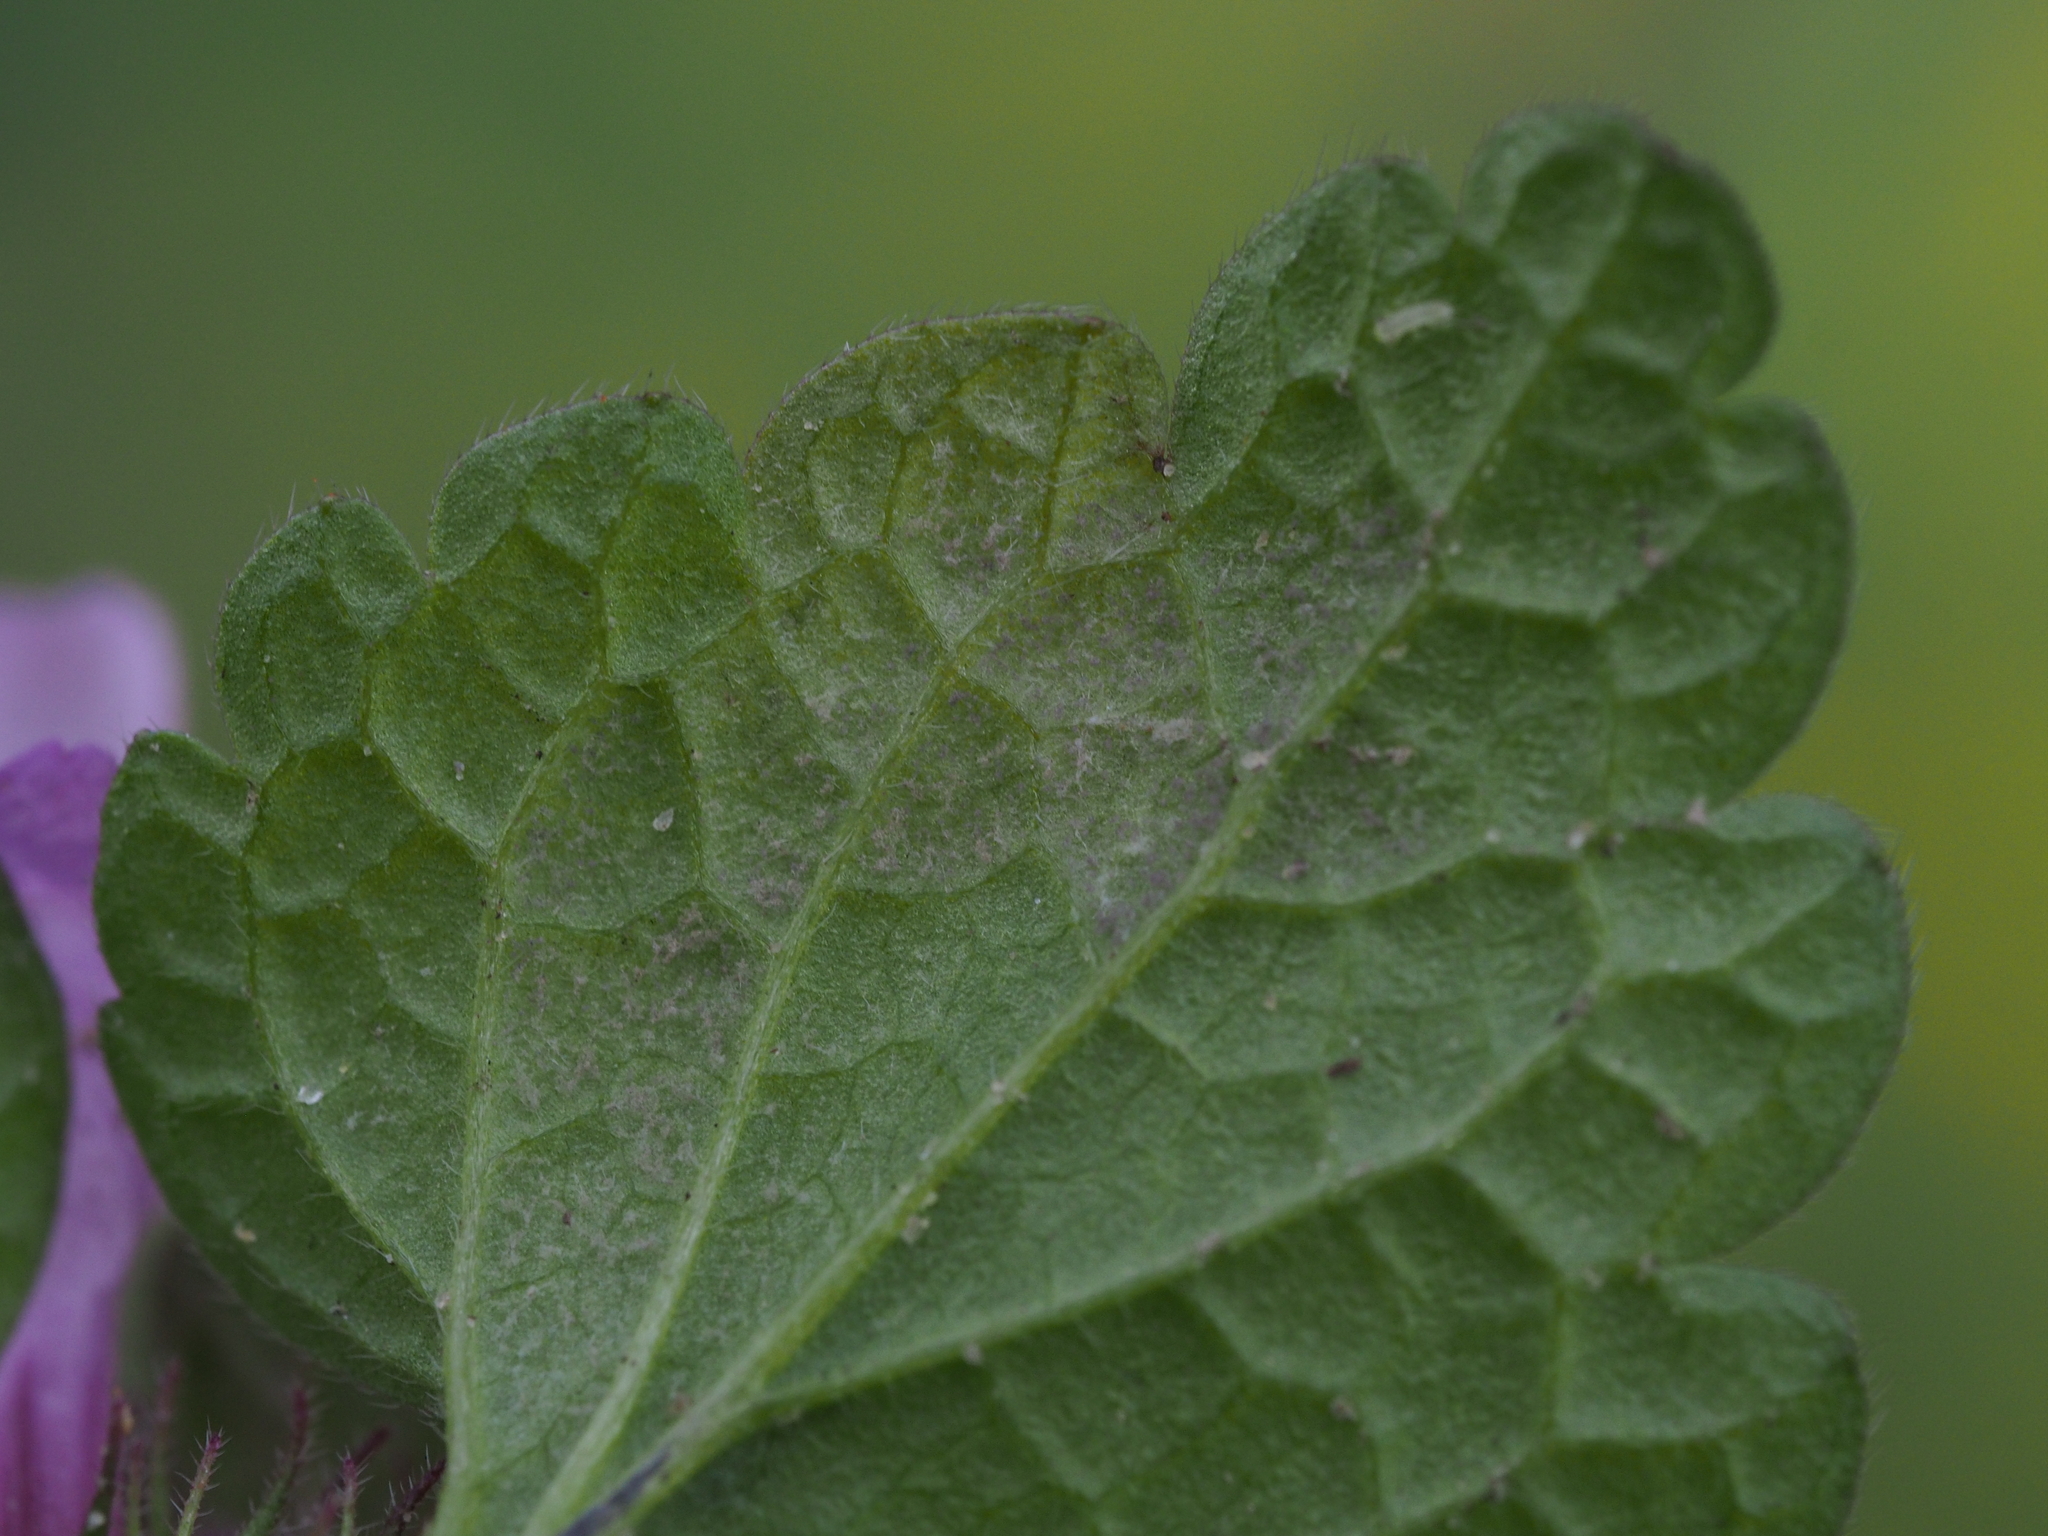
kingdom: Chromista
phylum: Oomycota
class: Peronosporea
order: Peronosporales
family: Peronosporaceae
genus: Peronospora
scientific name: Peronospora lamii
